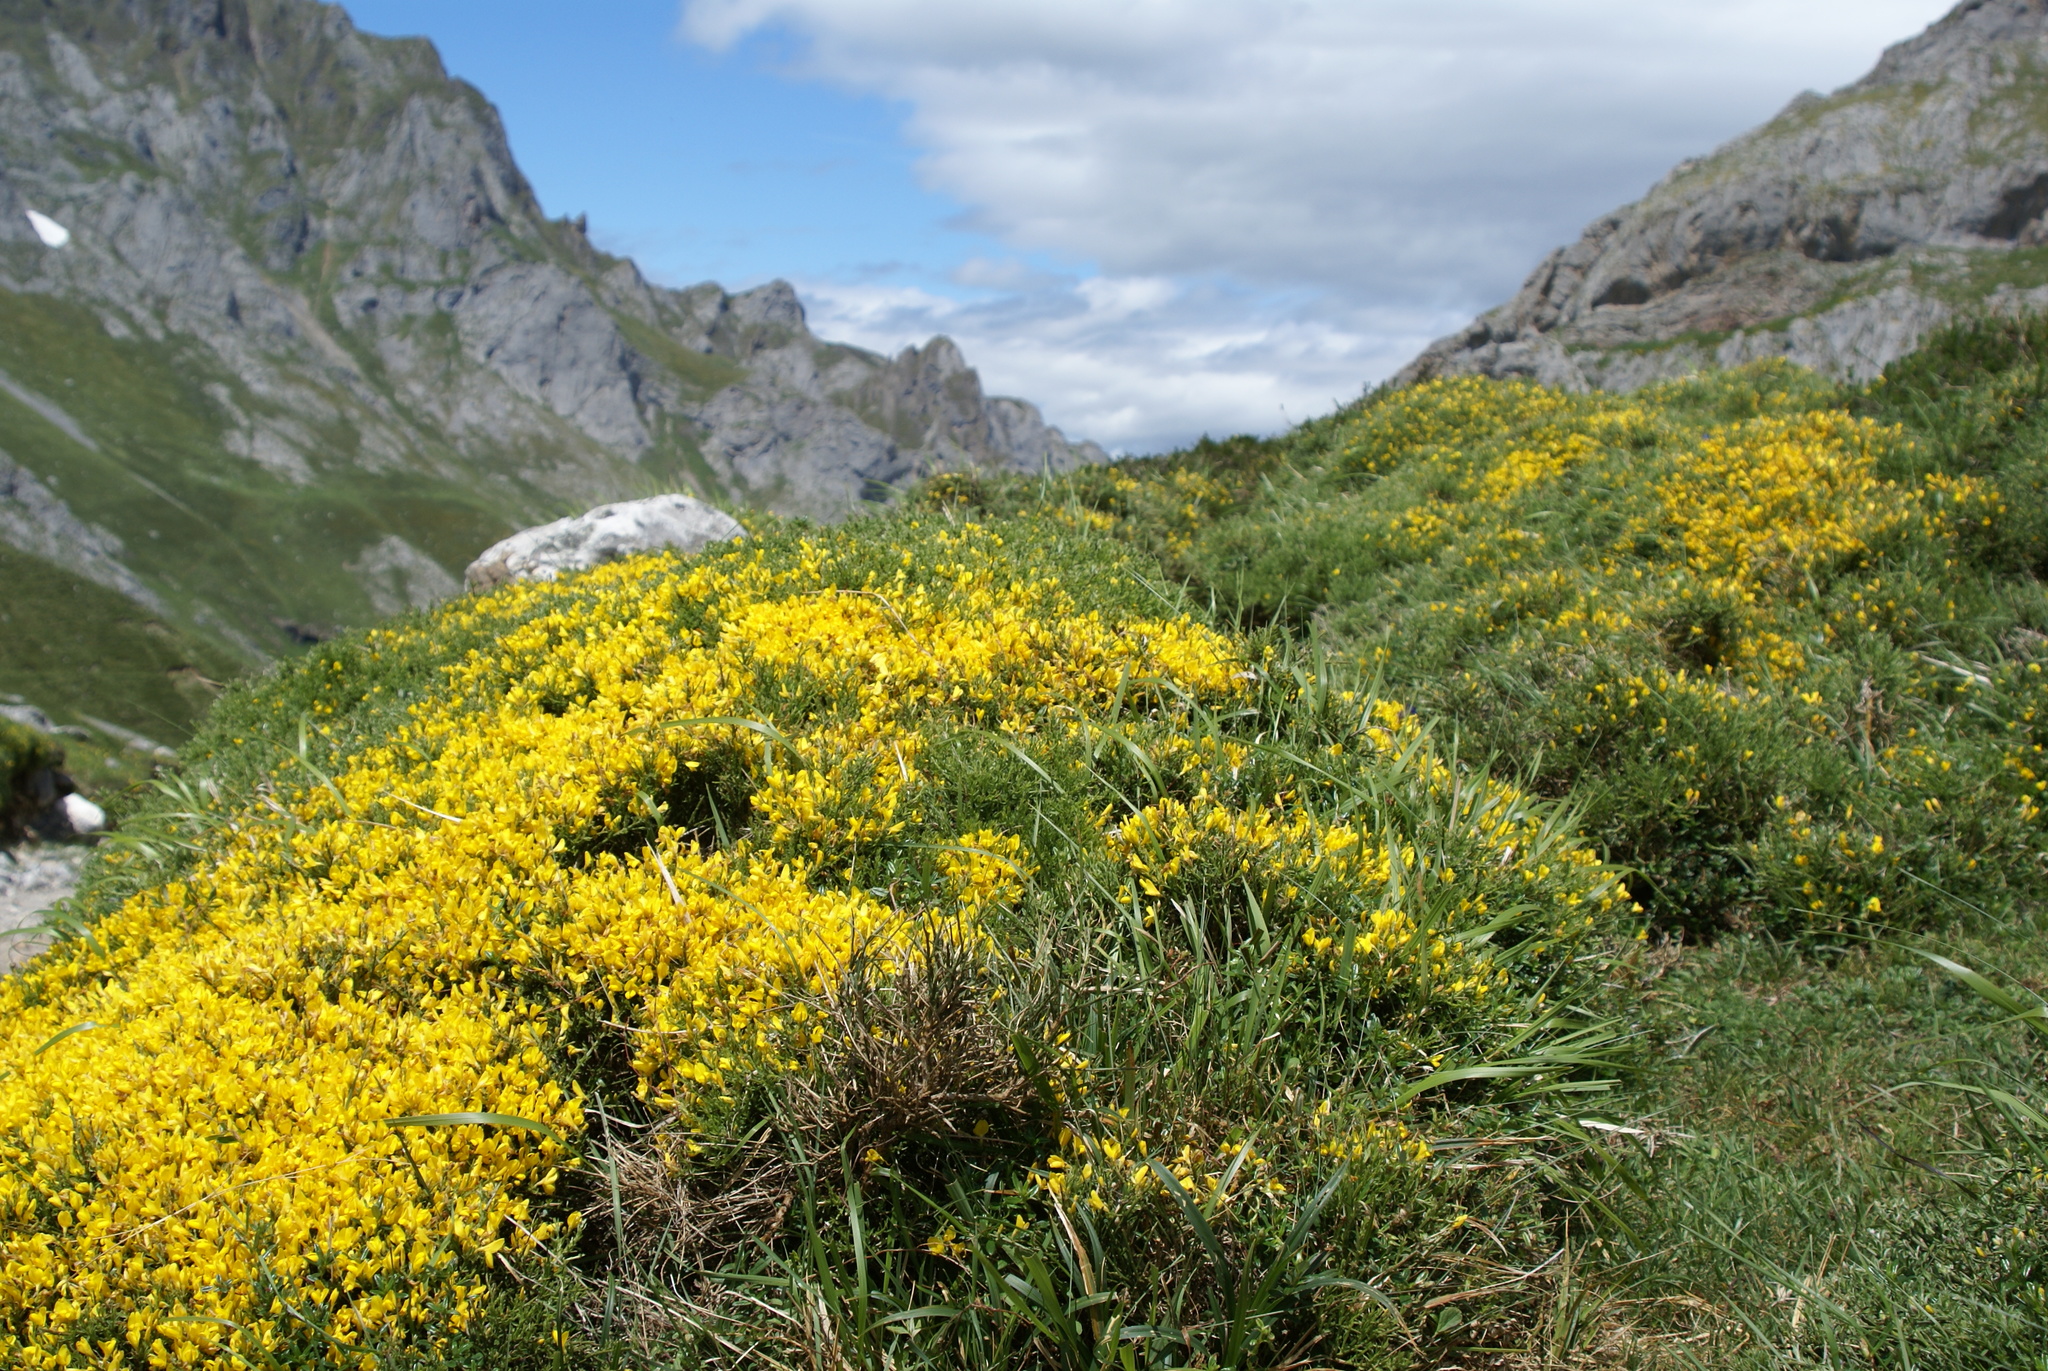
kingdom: Plantae
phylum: Tracheophyta
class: Magnoliopsida
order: Fabales
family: Fabaceae
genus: Genista
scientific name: Genista legionensis
